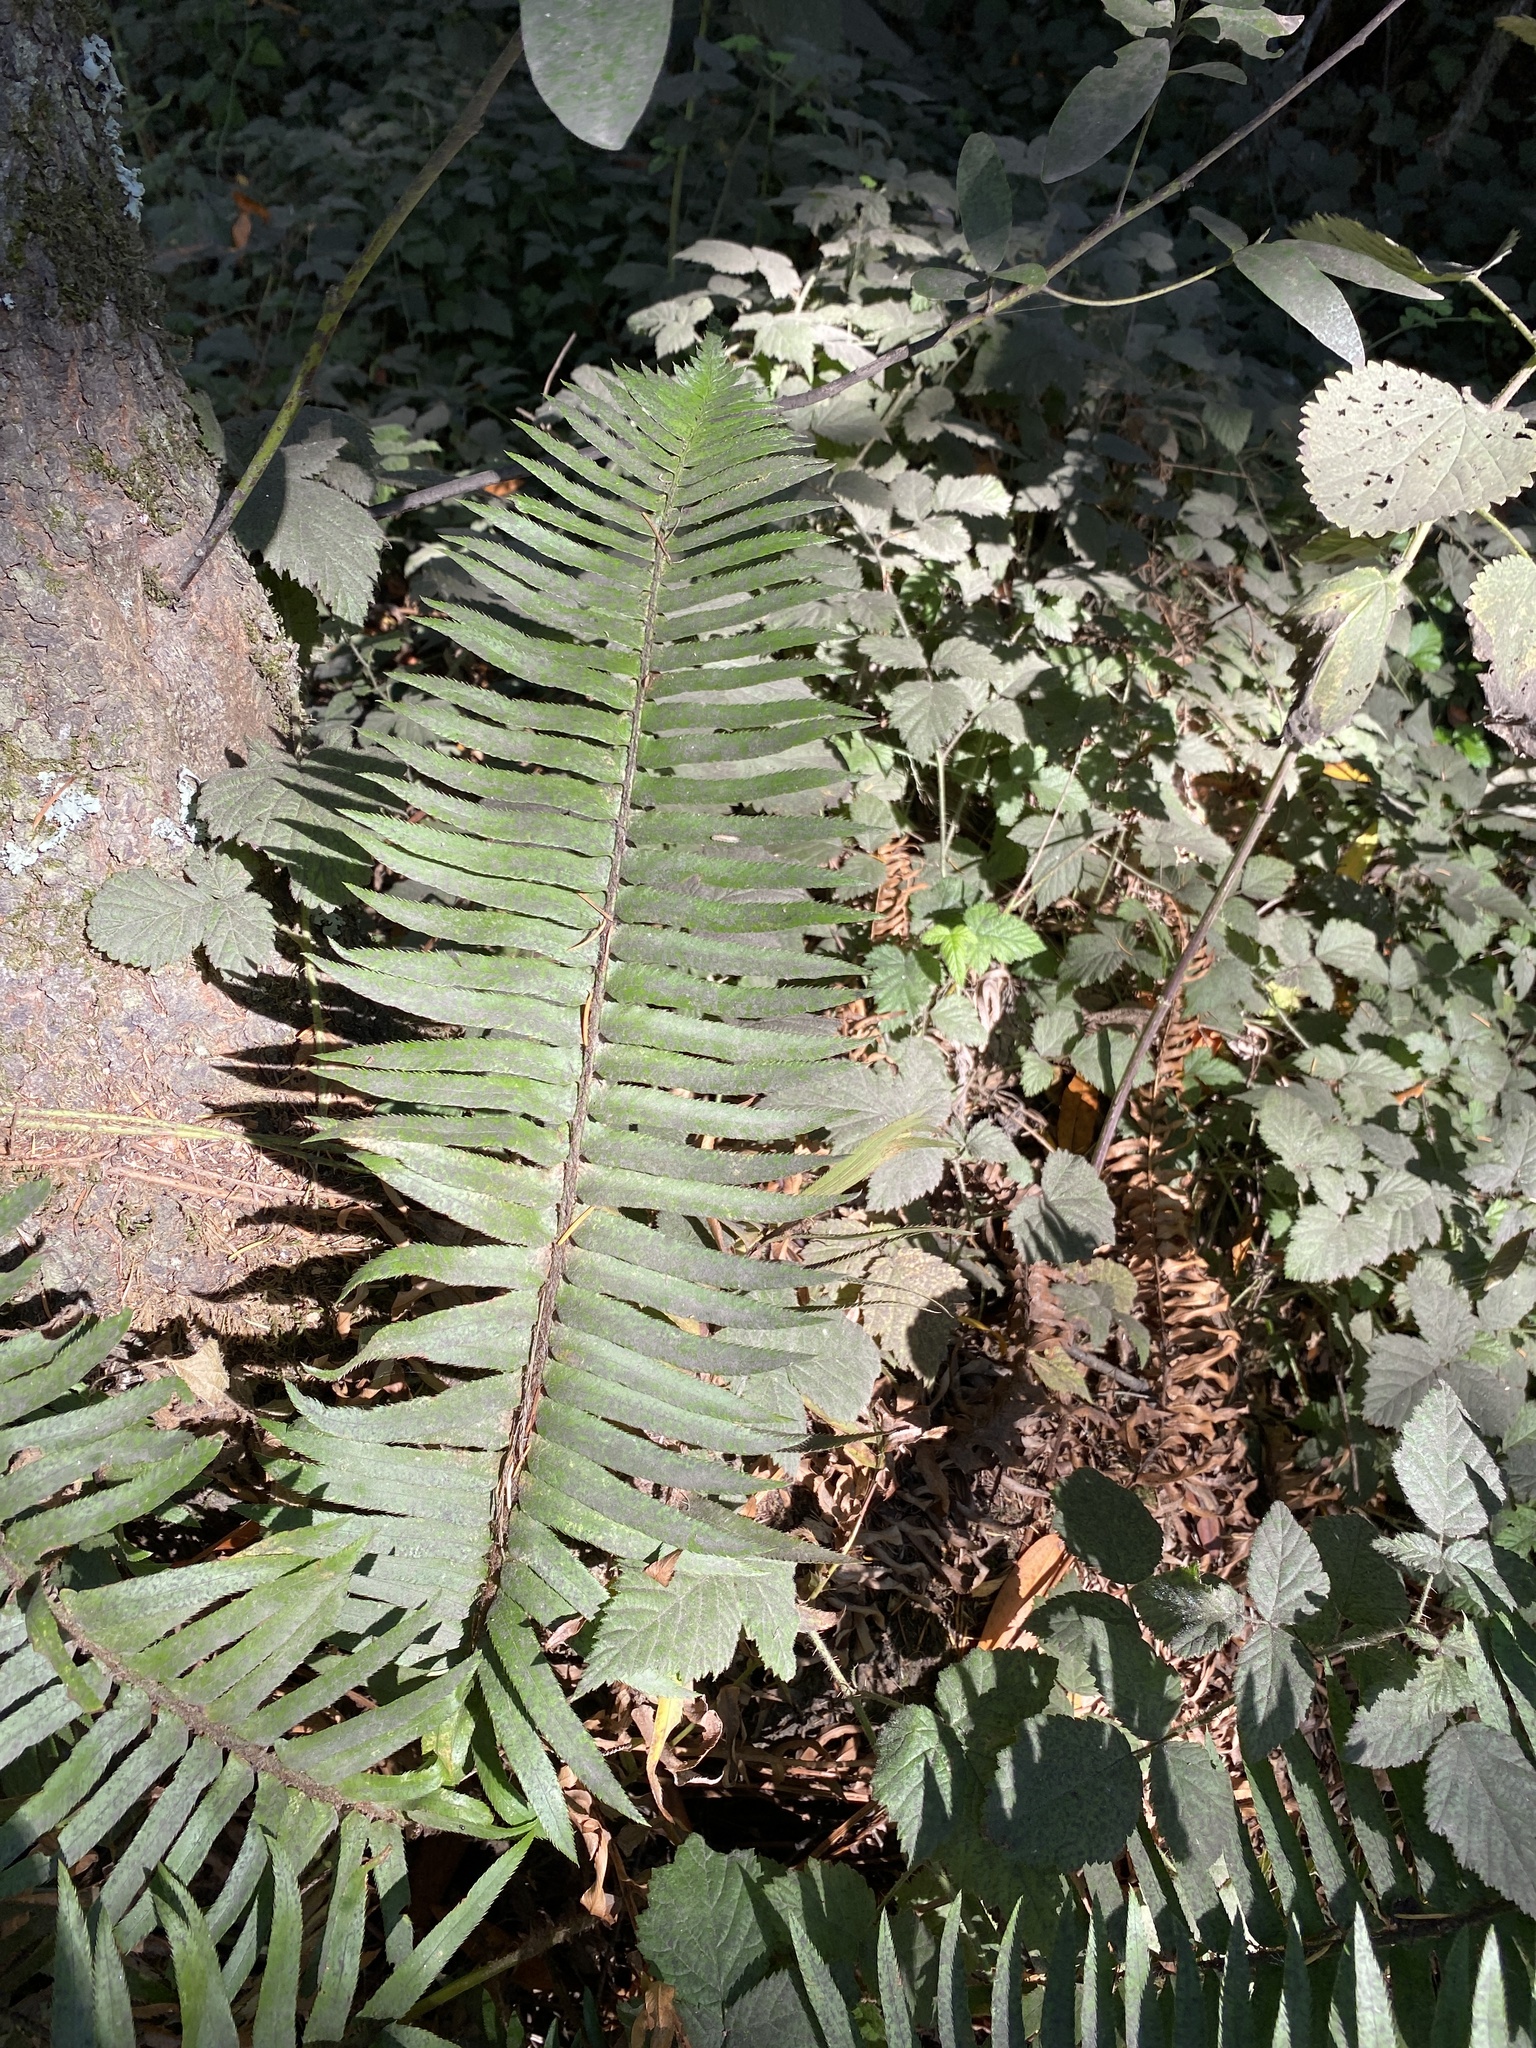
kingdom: Plantae
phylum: Tracheophyta
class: Polypodiopsida
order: Polypodiales
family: Dryopteridaceae
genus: Polystichum
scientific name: Polystichum munitum
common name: Western sword-fern
